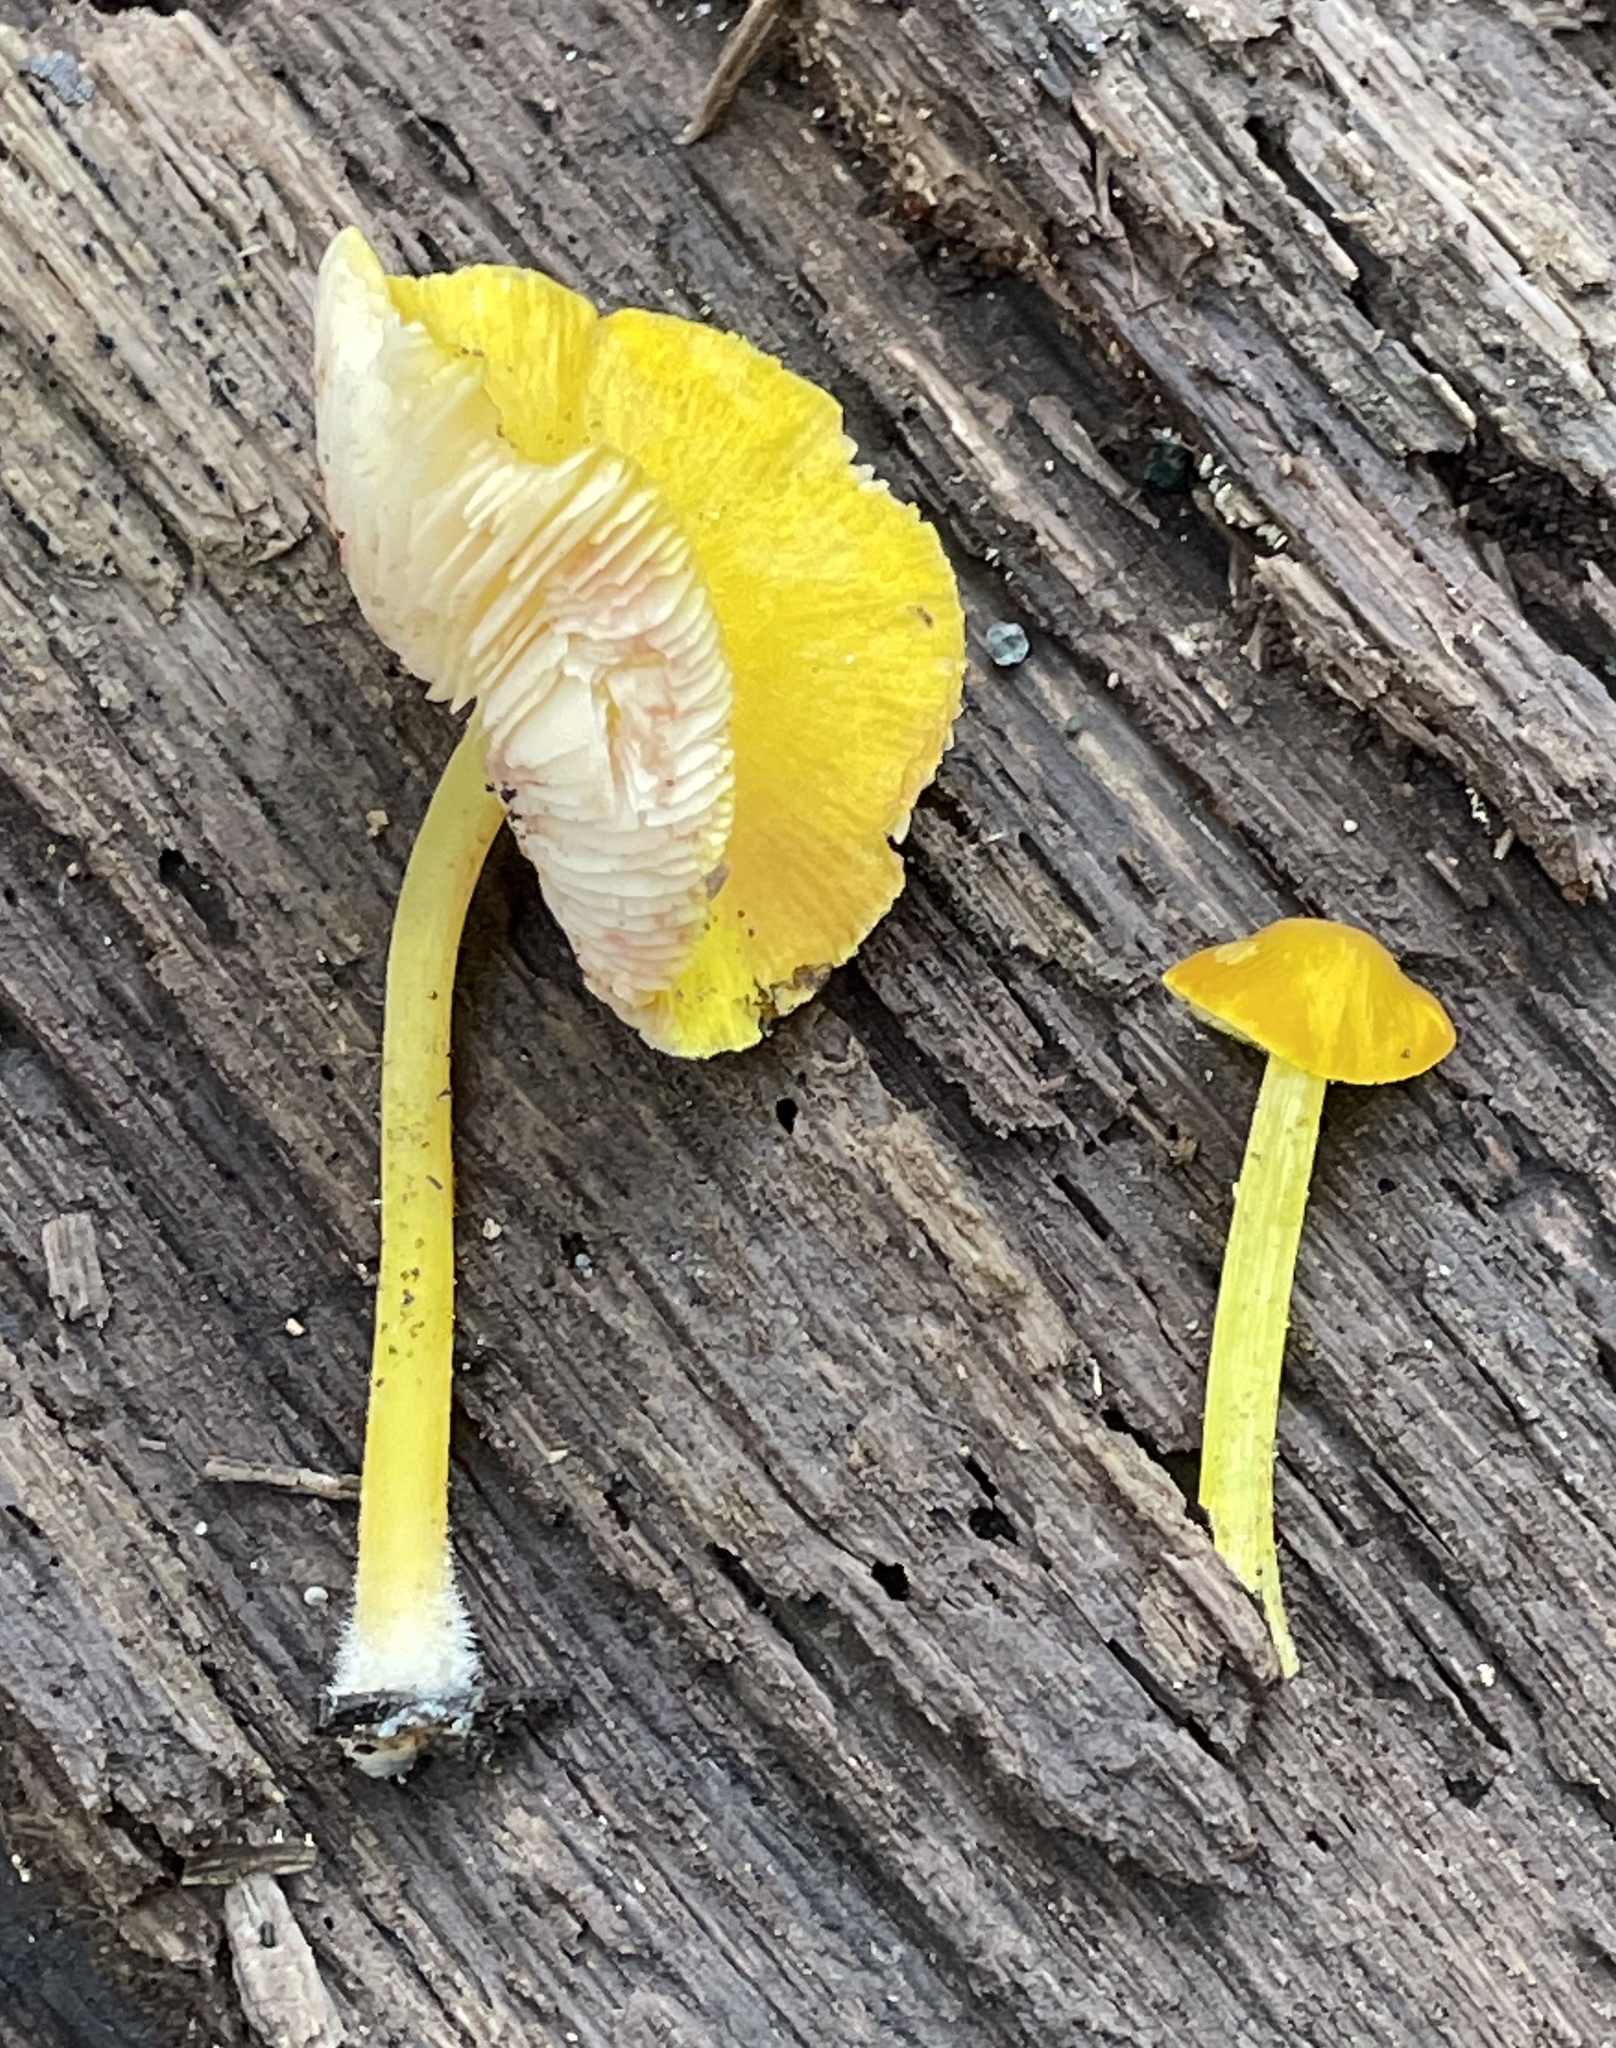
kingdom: Fungi
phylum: Basidiomycota
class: Agaricomycetes
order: Agaricales
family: Pluteaceae
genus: Pluteus
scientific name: Pluteus chrysophlebius
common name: Yellow deer mushroom
